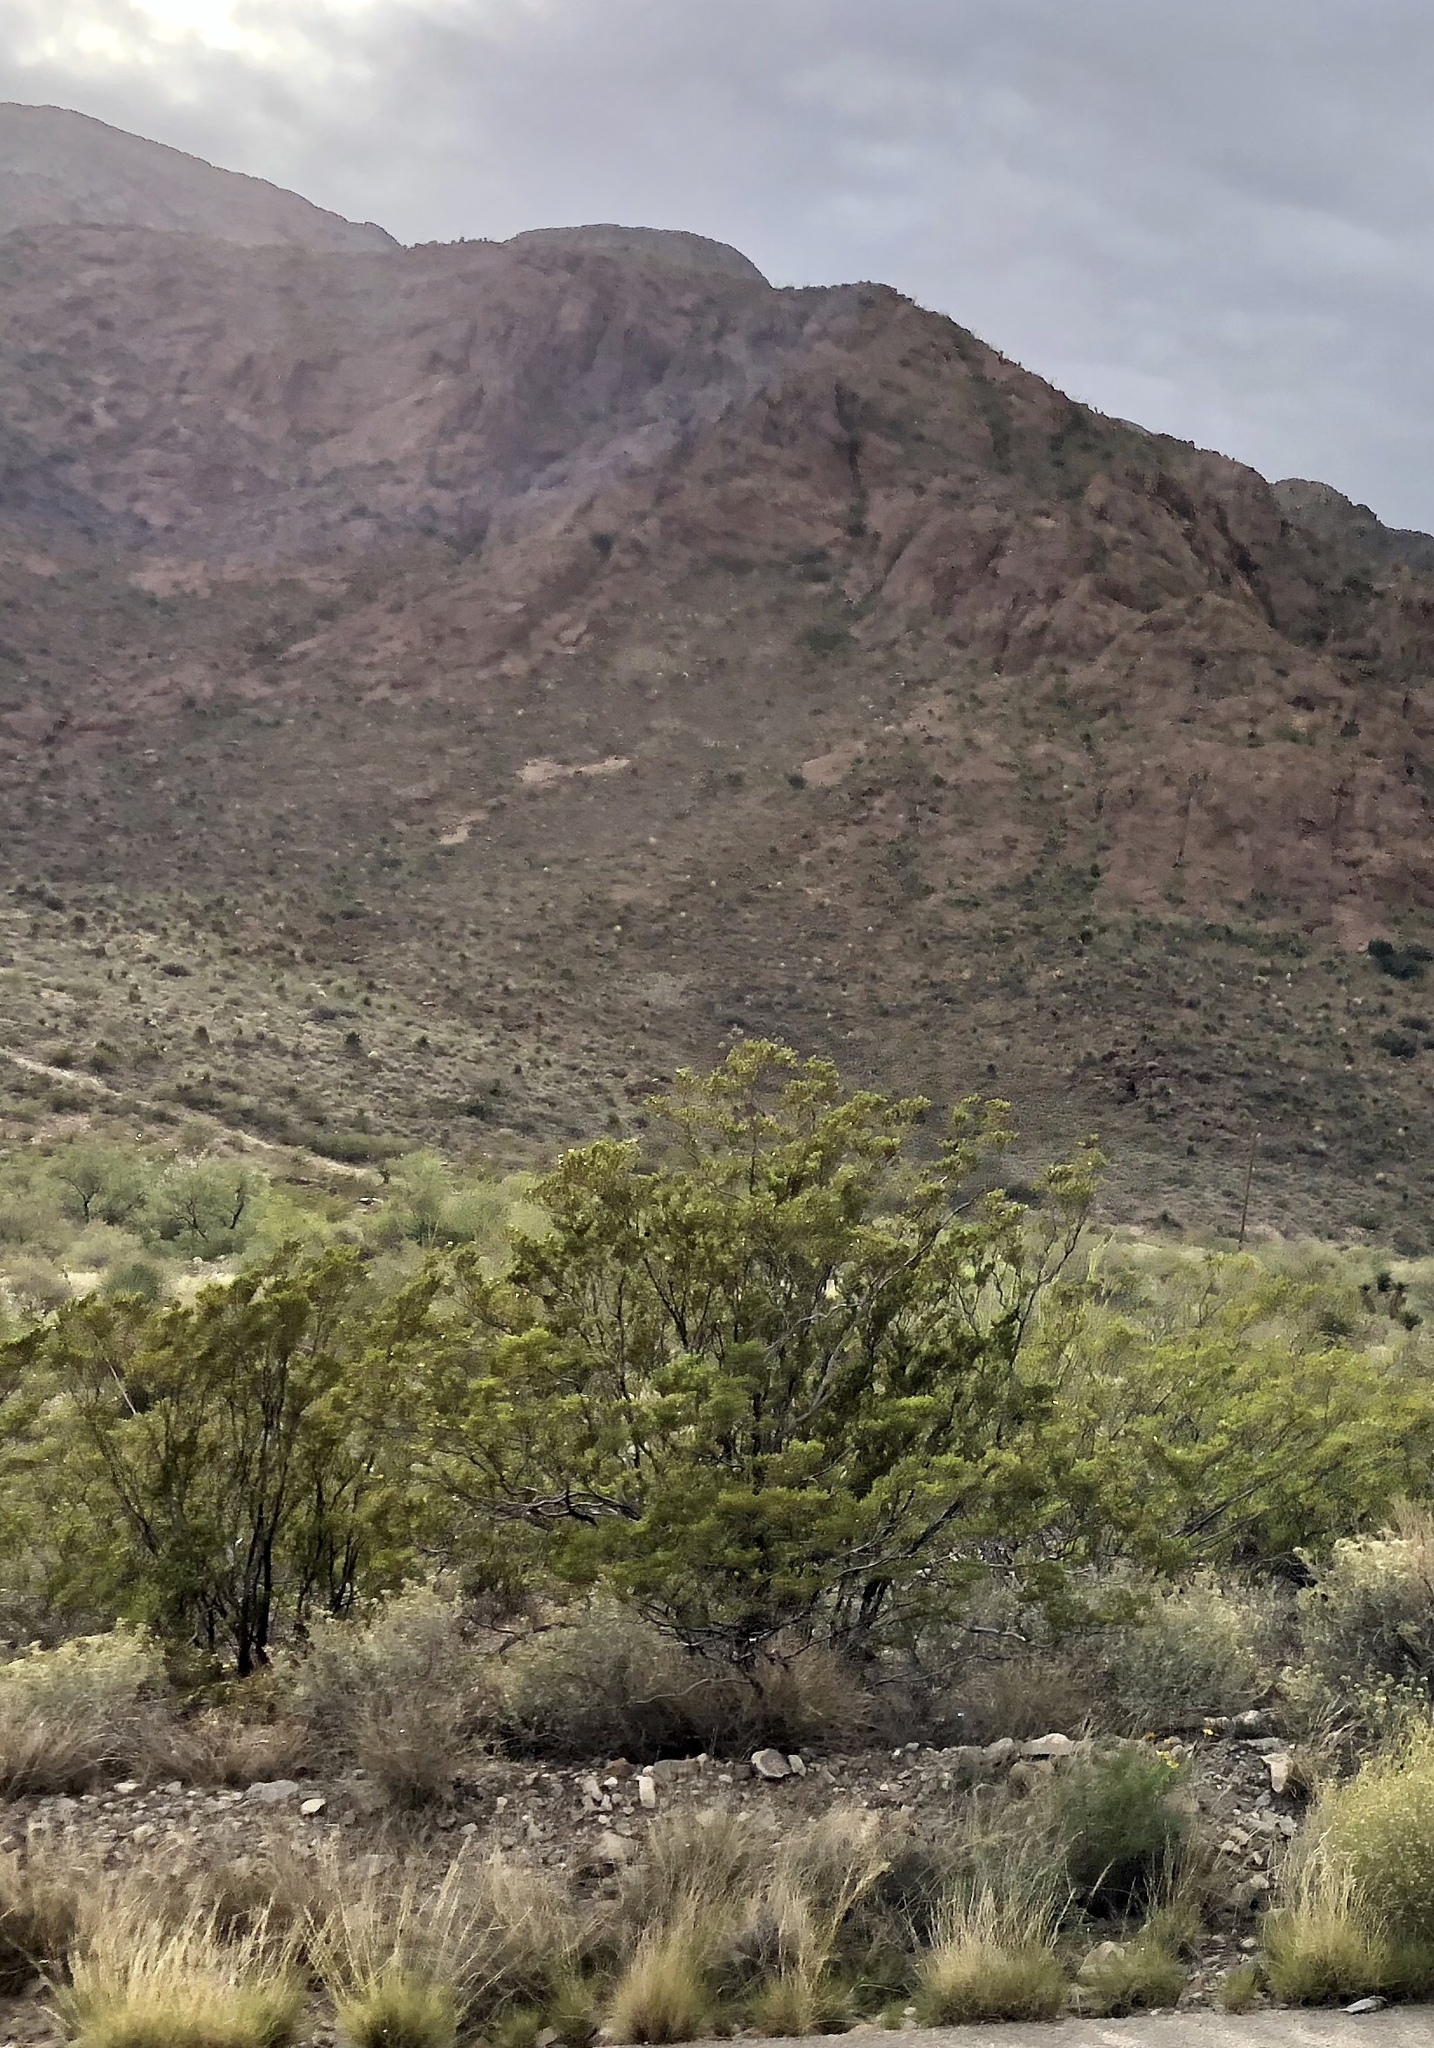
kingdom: Plantae
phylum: Tracheophyta
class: Magnoliopsida
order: Zygophyllales
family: Zygophyllaceae
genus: Larrea
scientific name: Larrea tridentata
